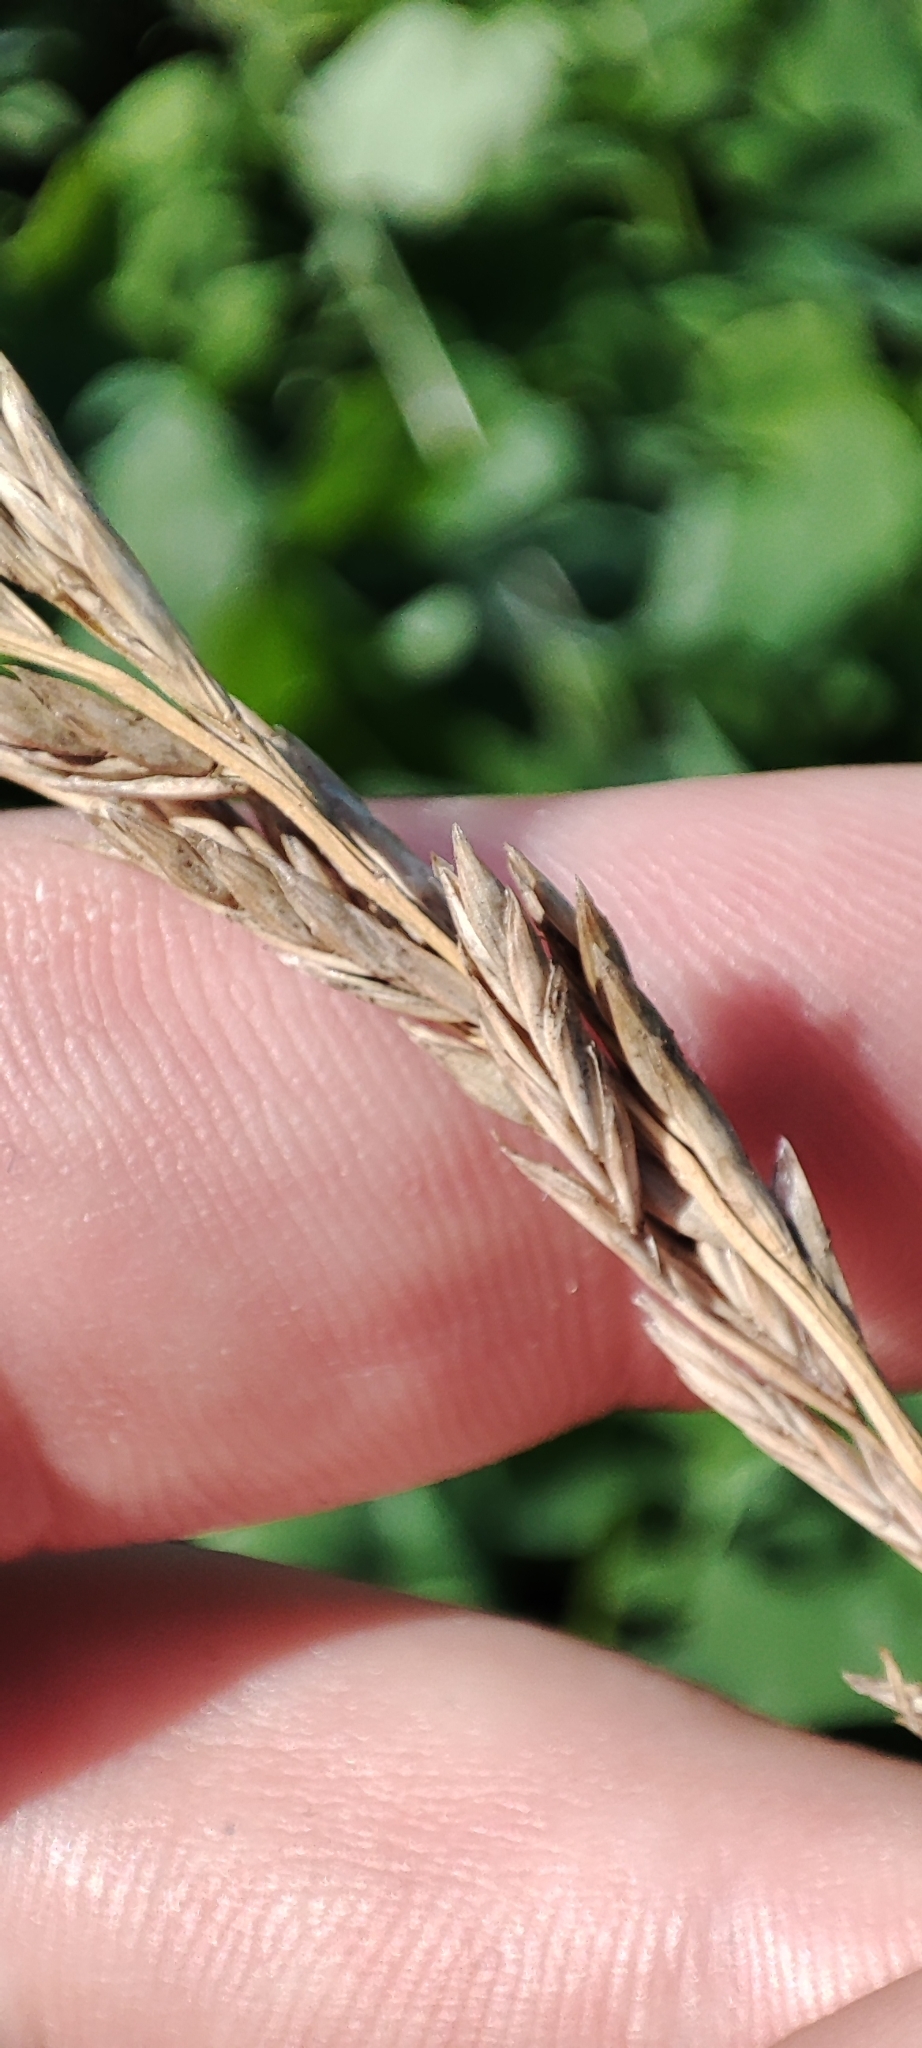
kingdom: Plantae
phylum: Tracheophyta
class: Liliopsida
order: Poales
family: Poaceae
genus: Lolium
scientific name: Lolium pratense
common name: Dover grass
